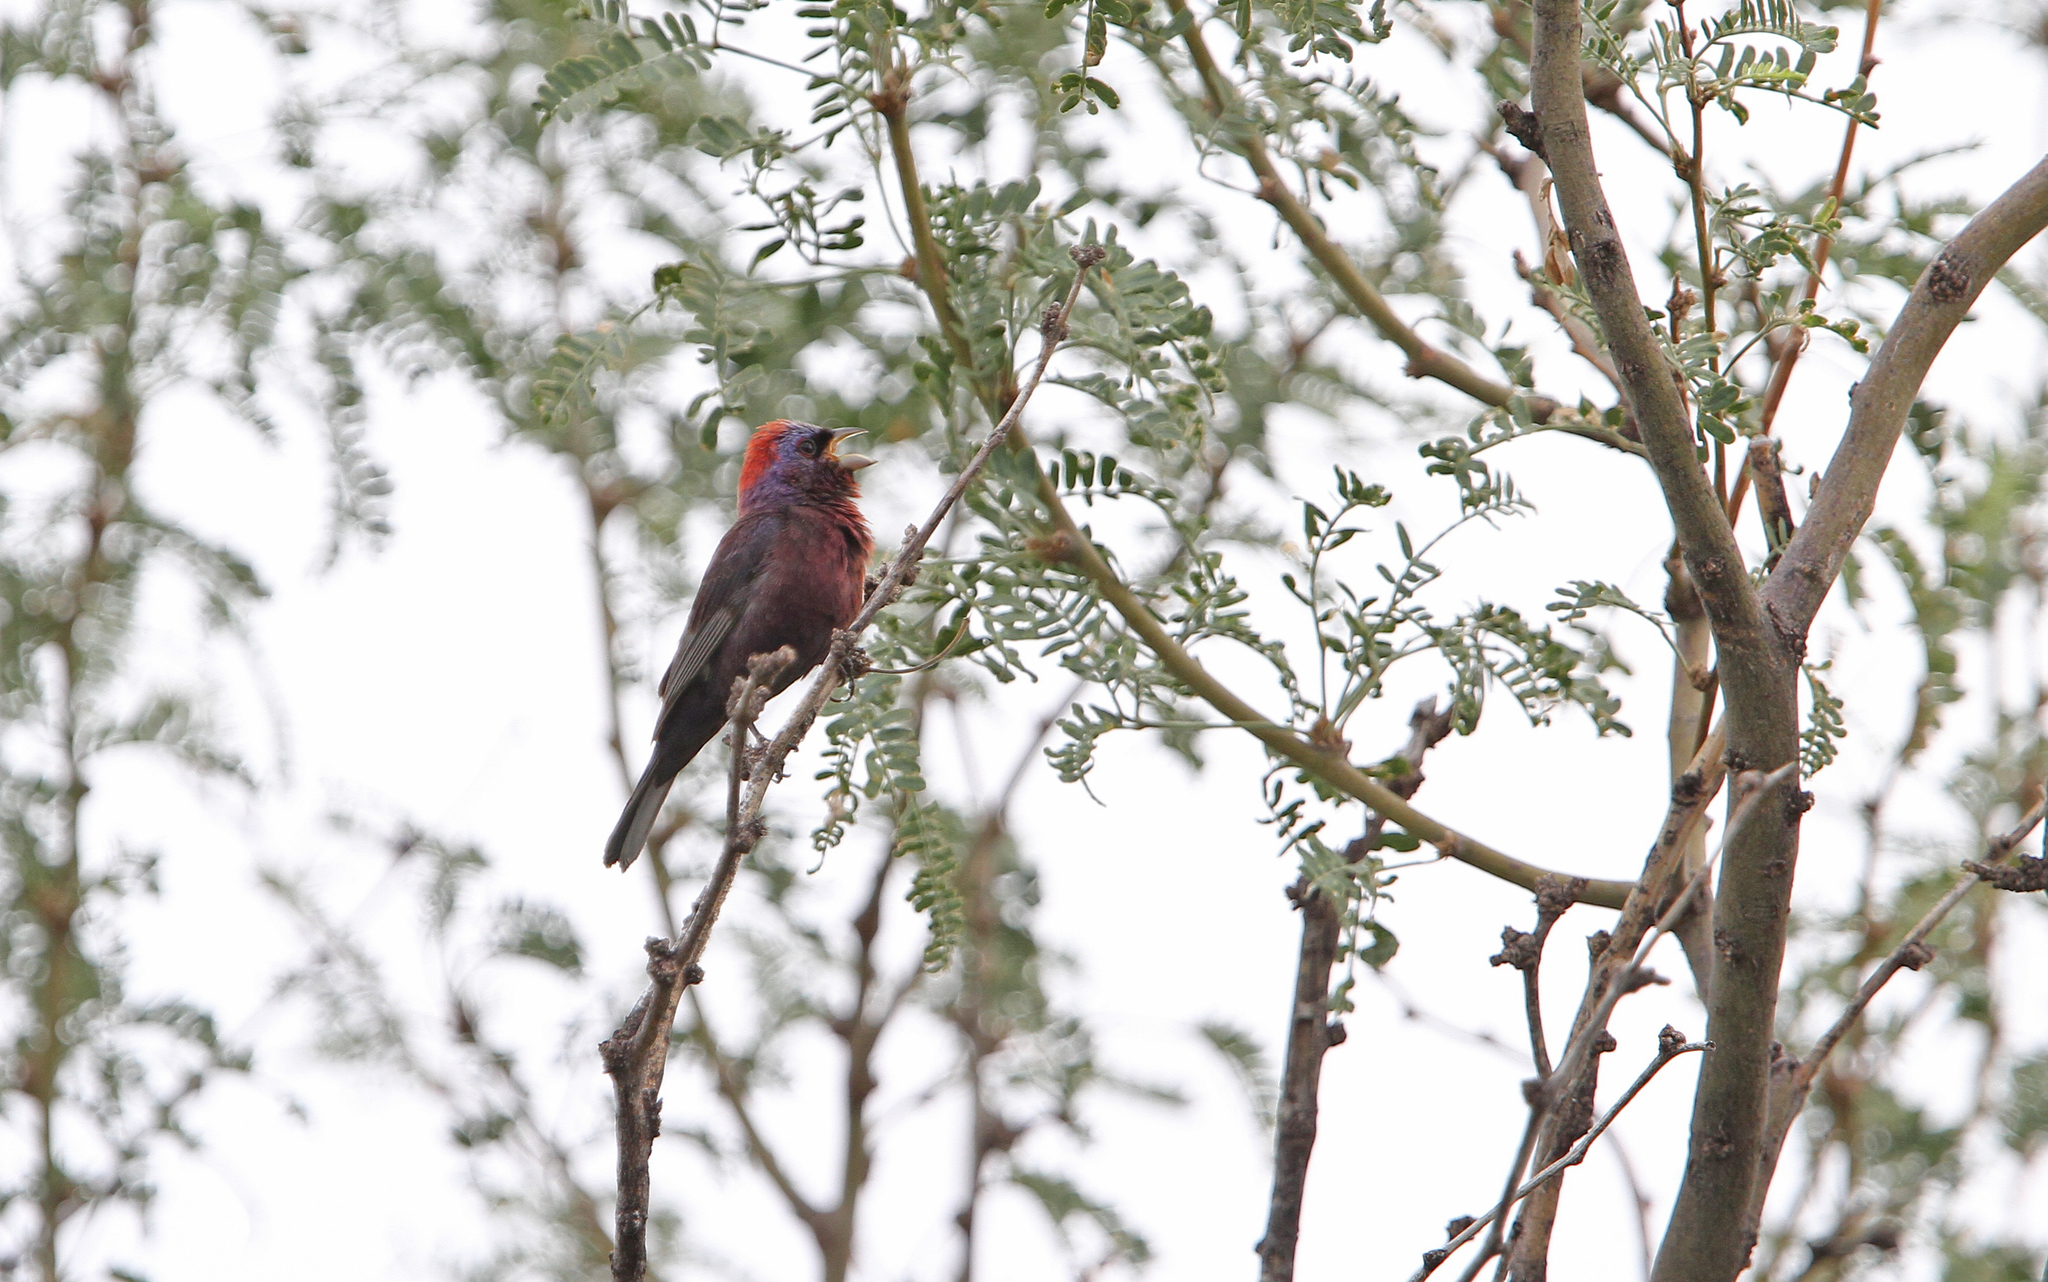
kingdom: Animalia
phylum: Chordata
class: Aves
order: Passeriformes
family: Cardinalidae
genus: Passerina
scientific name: Passerina versicolor
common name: Varied bunting
